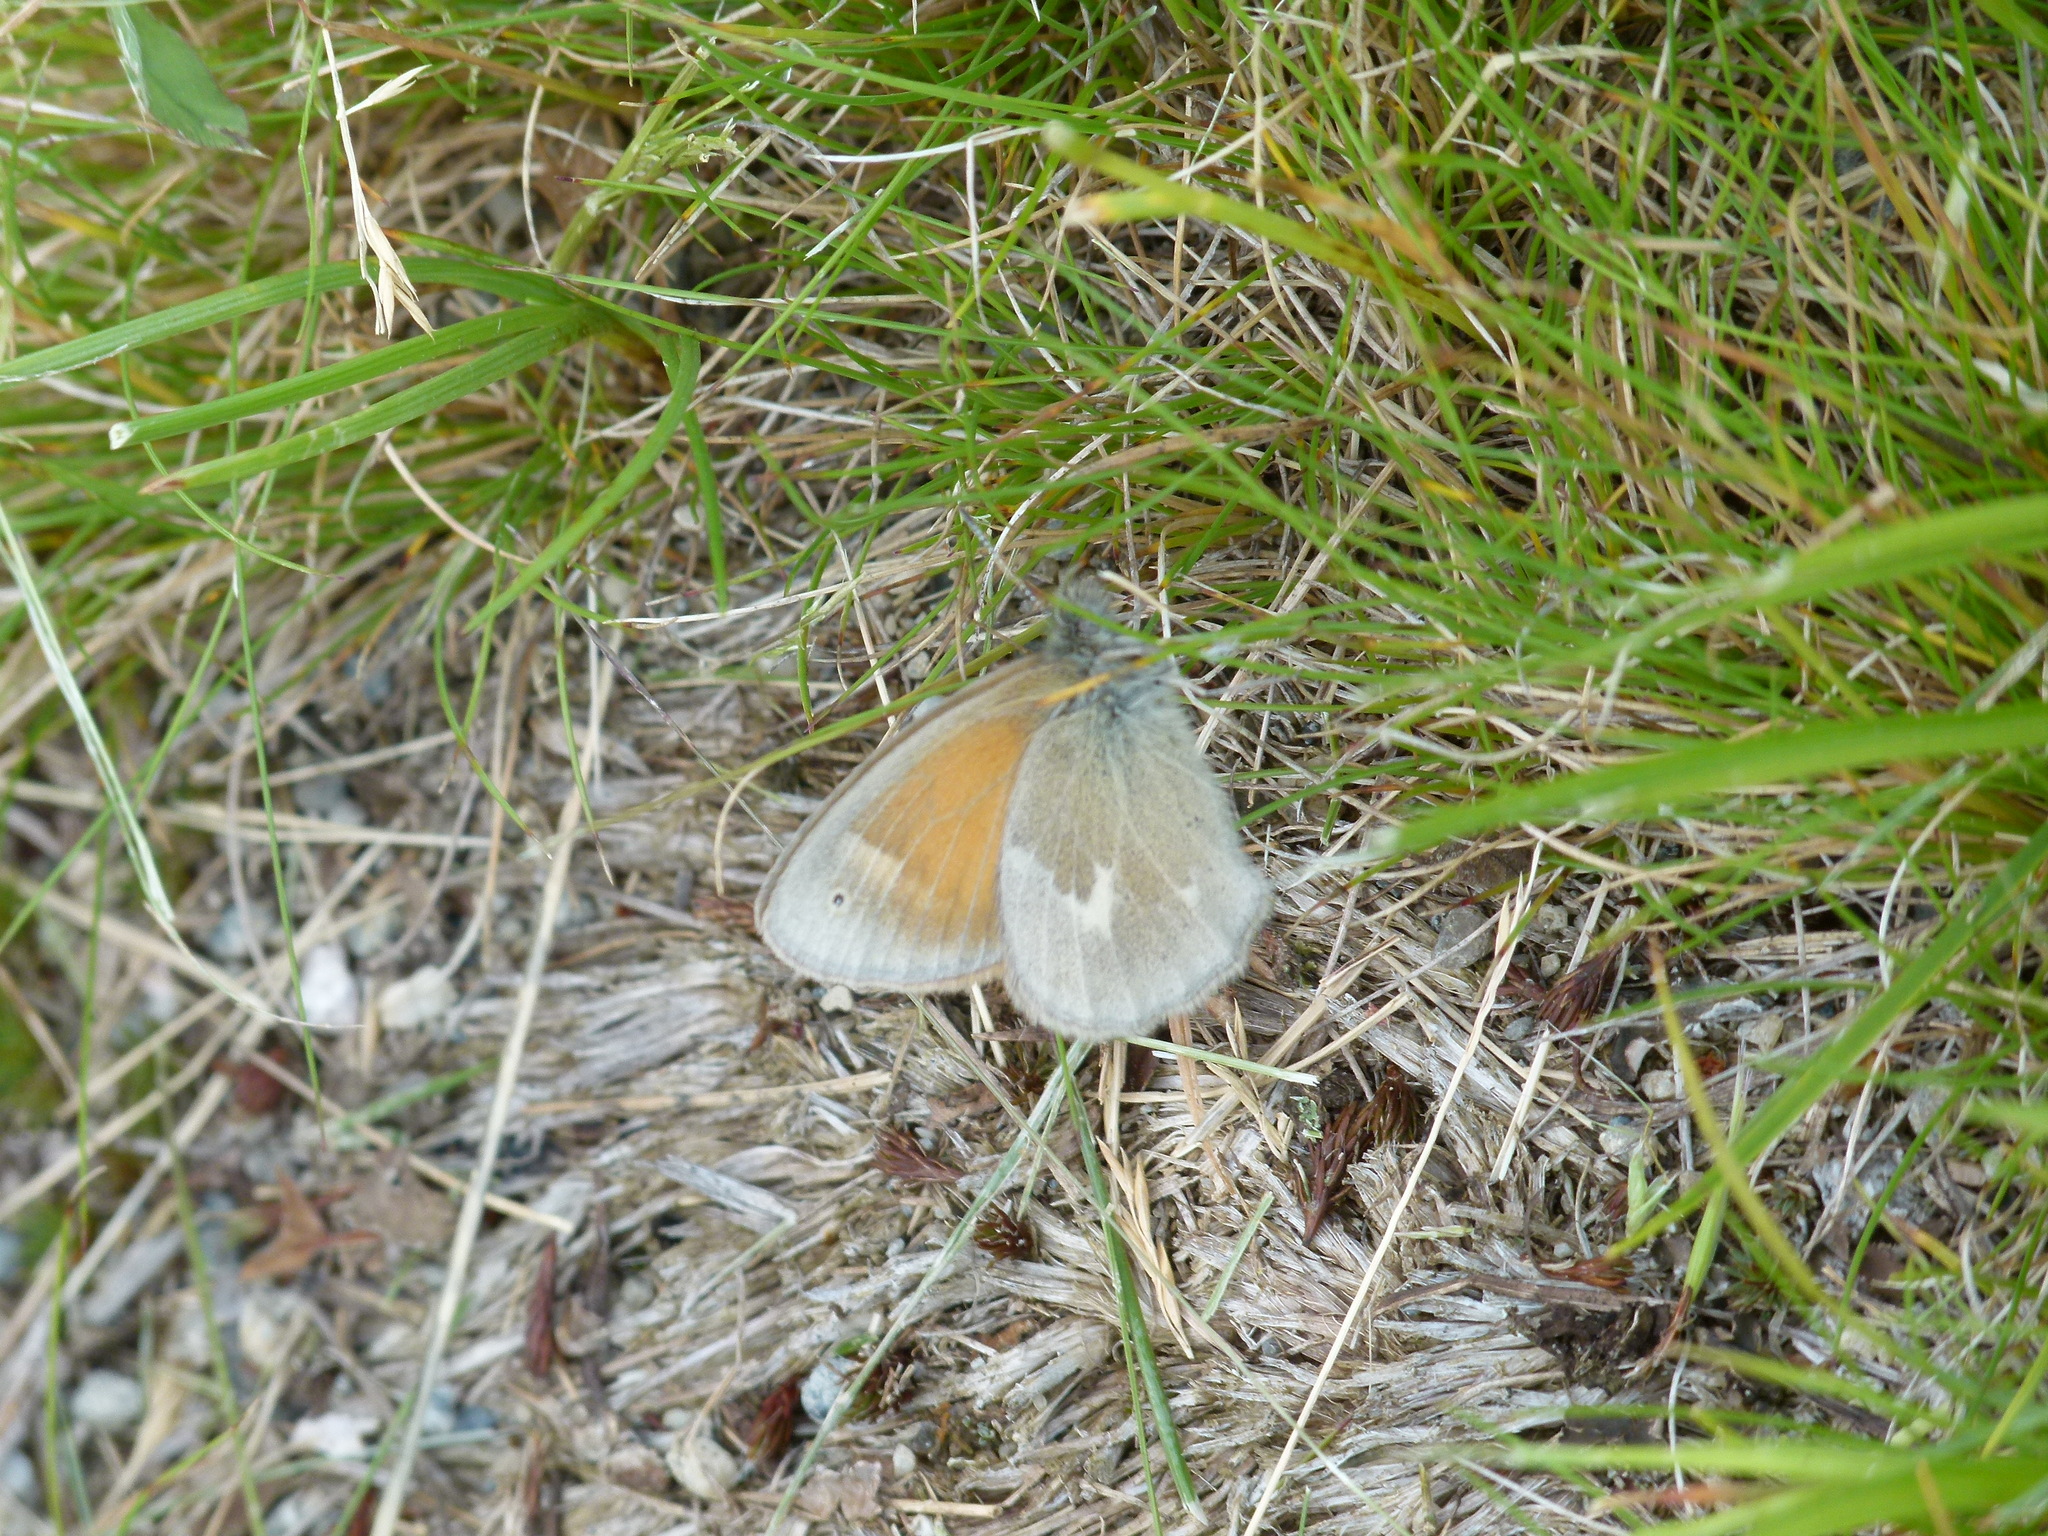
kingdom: Animalia
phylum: Arthropoda
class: Insecta
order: Lepidoptera
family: Nymphalidae
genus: Coenonympha
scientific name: Coenonympha california
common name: Common ringlet
